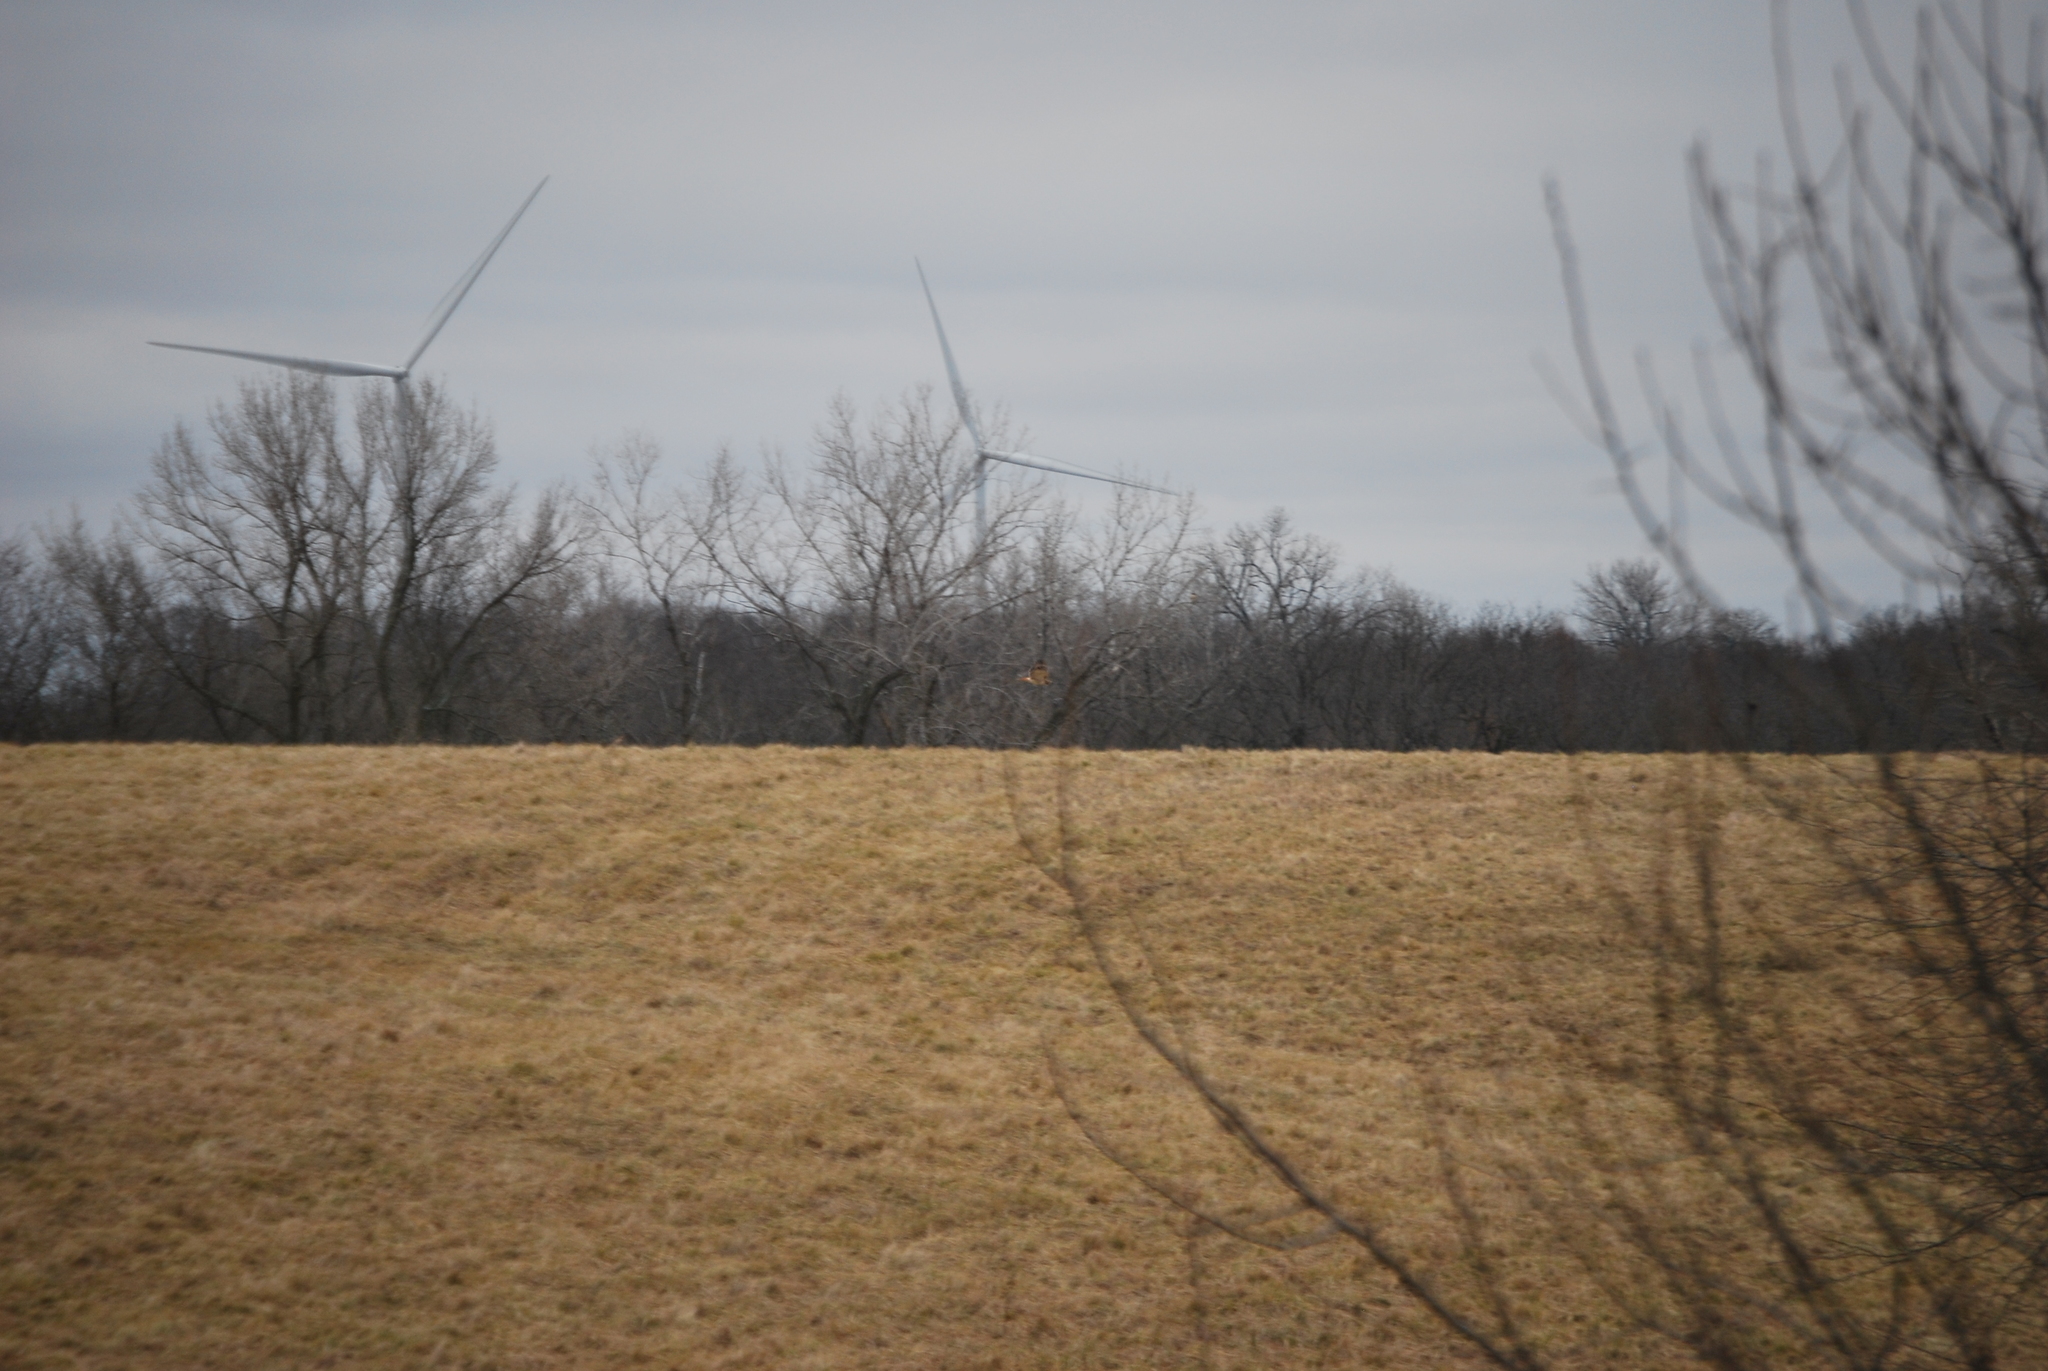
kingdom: Animalia
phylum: Chordata
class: Aves
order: Accipitriformes
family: Accipitridae
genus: Buteo
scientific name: Buteo jamaicensis
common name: Red-tailed hawk
